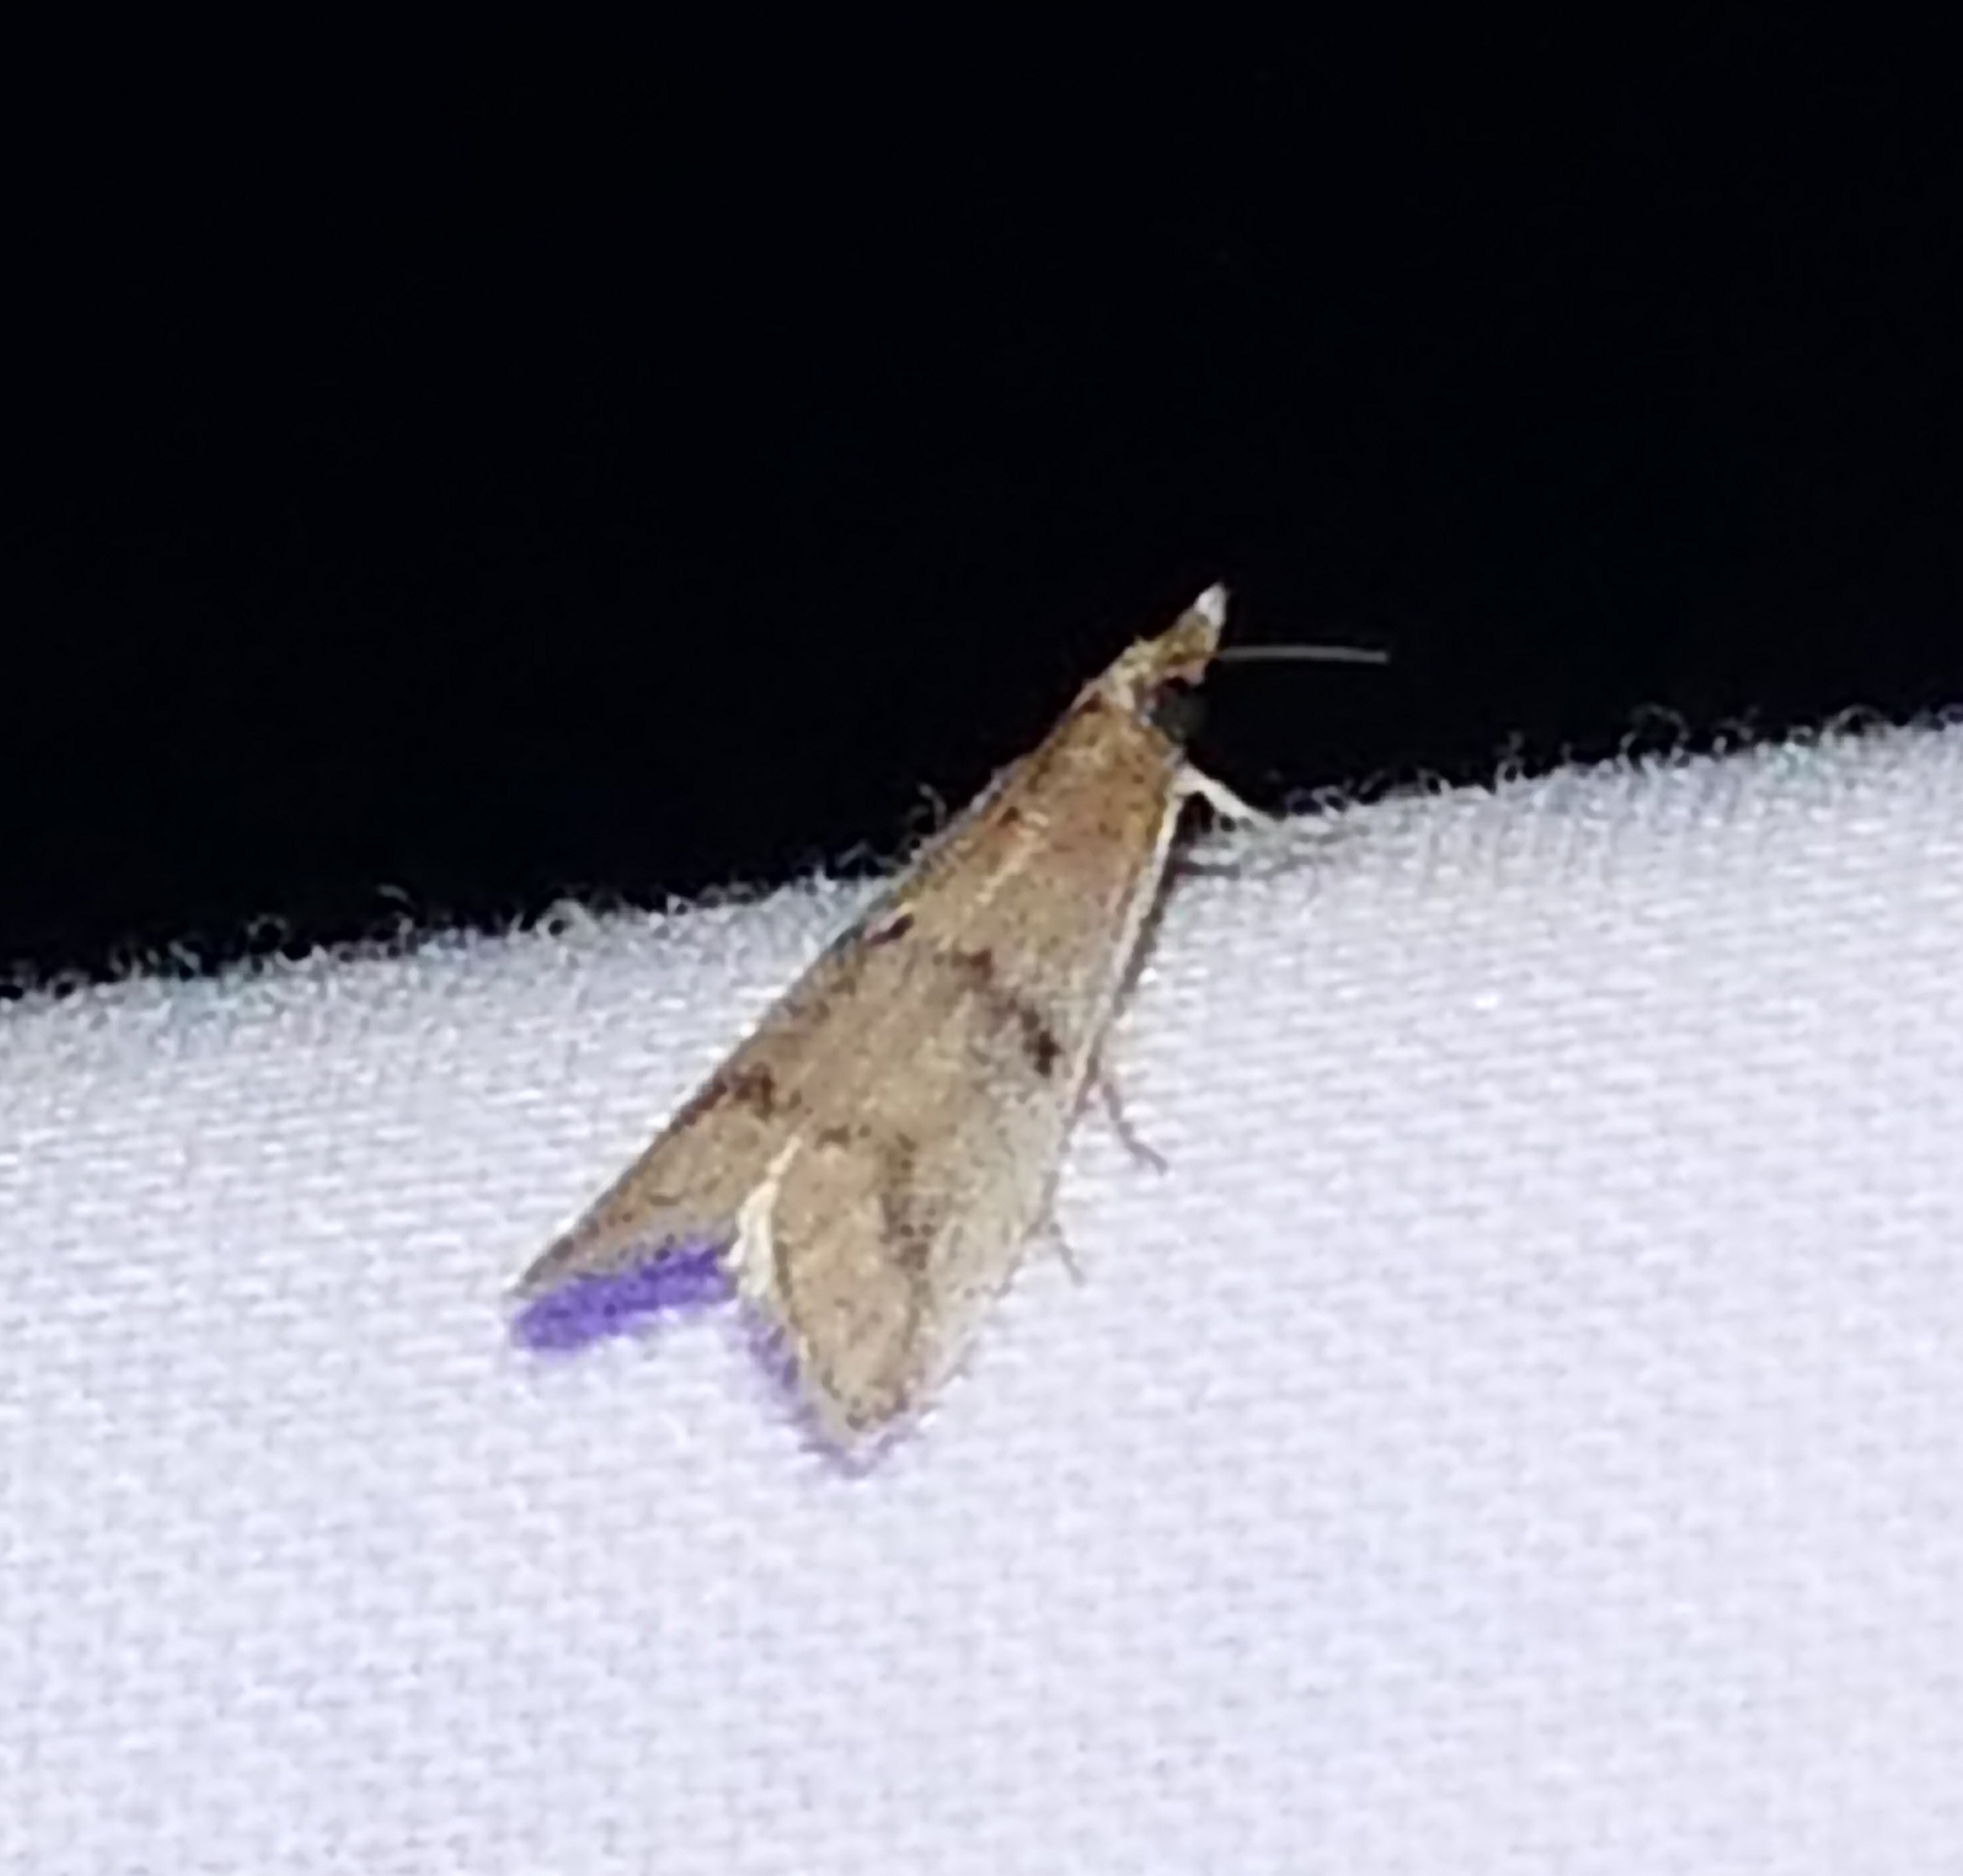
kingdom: Animalia
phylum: Arthropoda
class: Insecta
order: Lepidoptera
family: Pyralidae
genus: Reynosa
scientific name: Reynosa floscella
